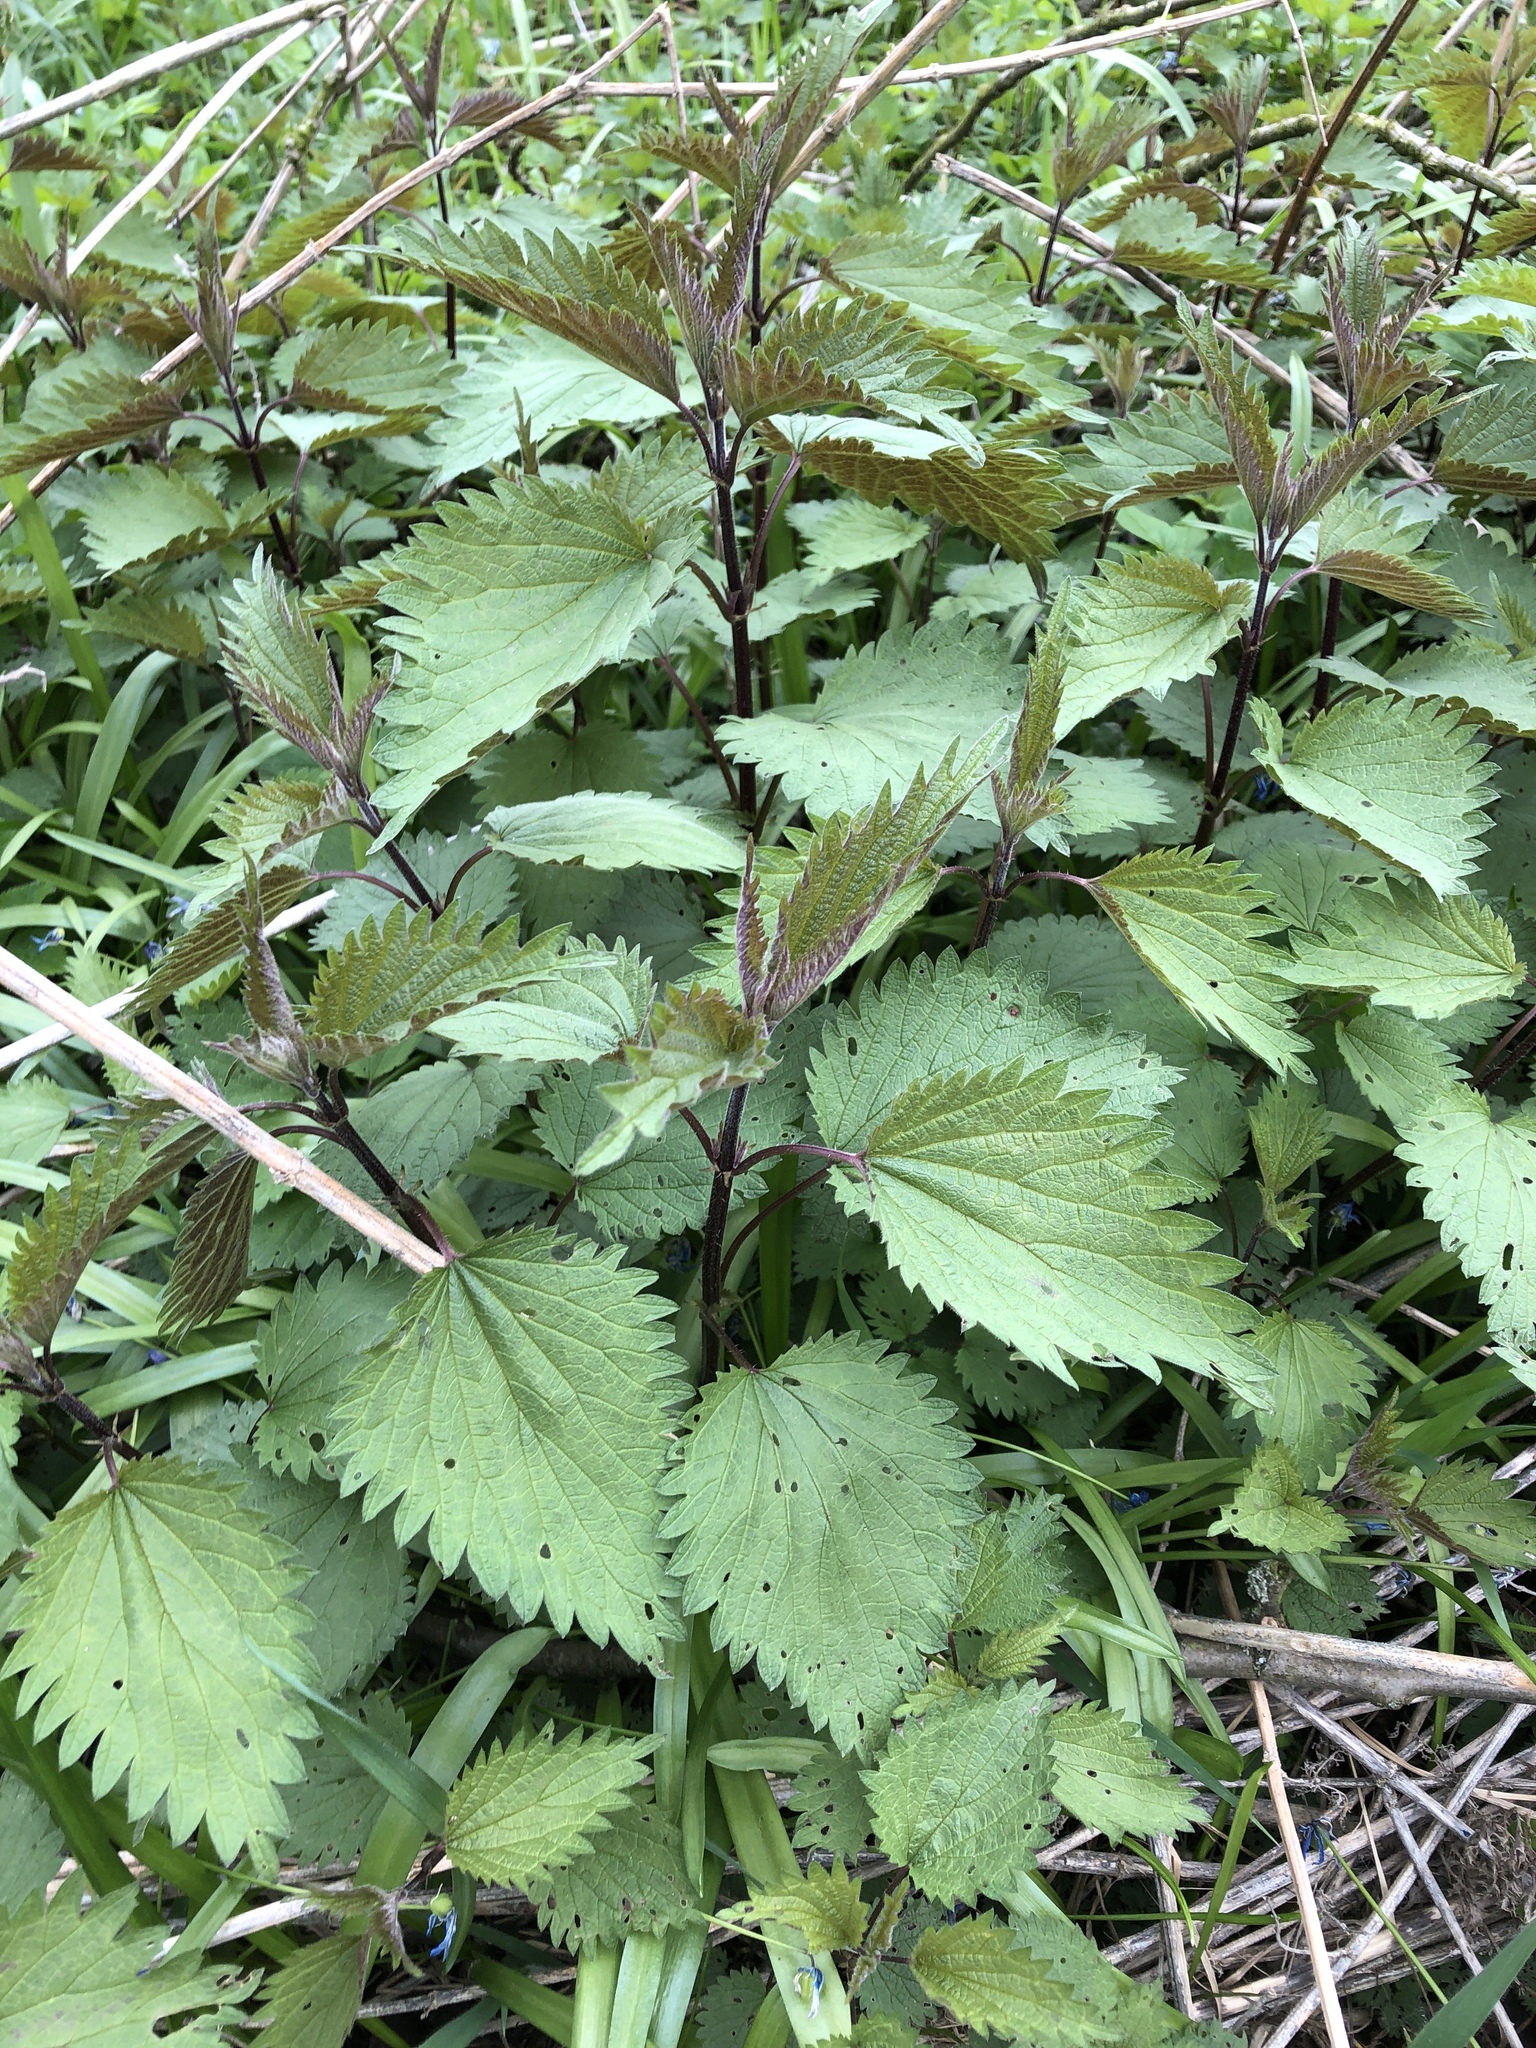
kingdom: Plantae
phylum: Tracheophyta
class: Magnoliopsida
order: Rosales
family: Urticaceae
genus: Urtica
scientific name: Urtica dioica
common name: Common nettle
